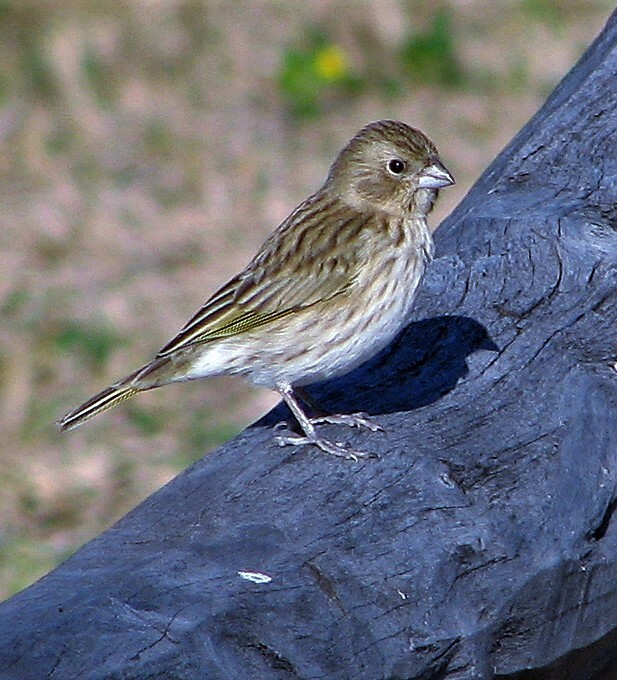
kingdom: Animalia
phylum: Chordata
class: Aves
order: Passeriformes
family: Thraupidae
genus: Sicalis
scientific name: Sicalis flaveola
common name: Saffron finch
